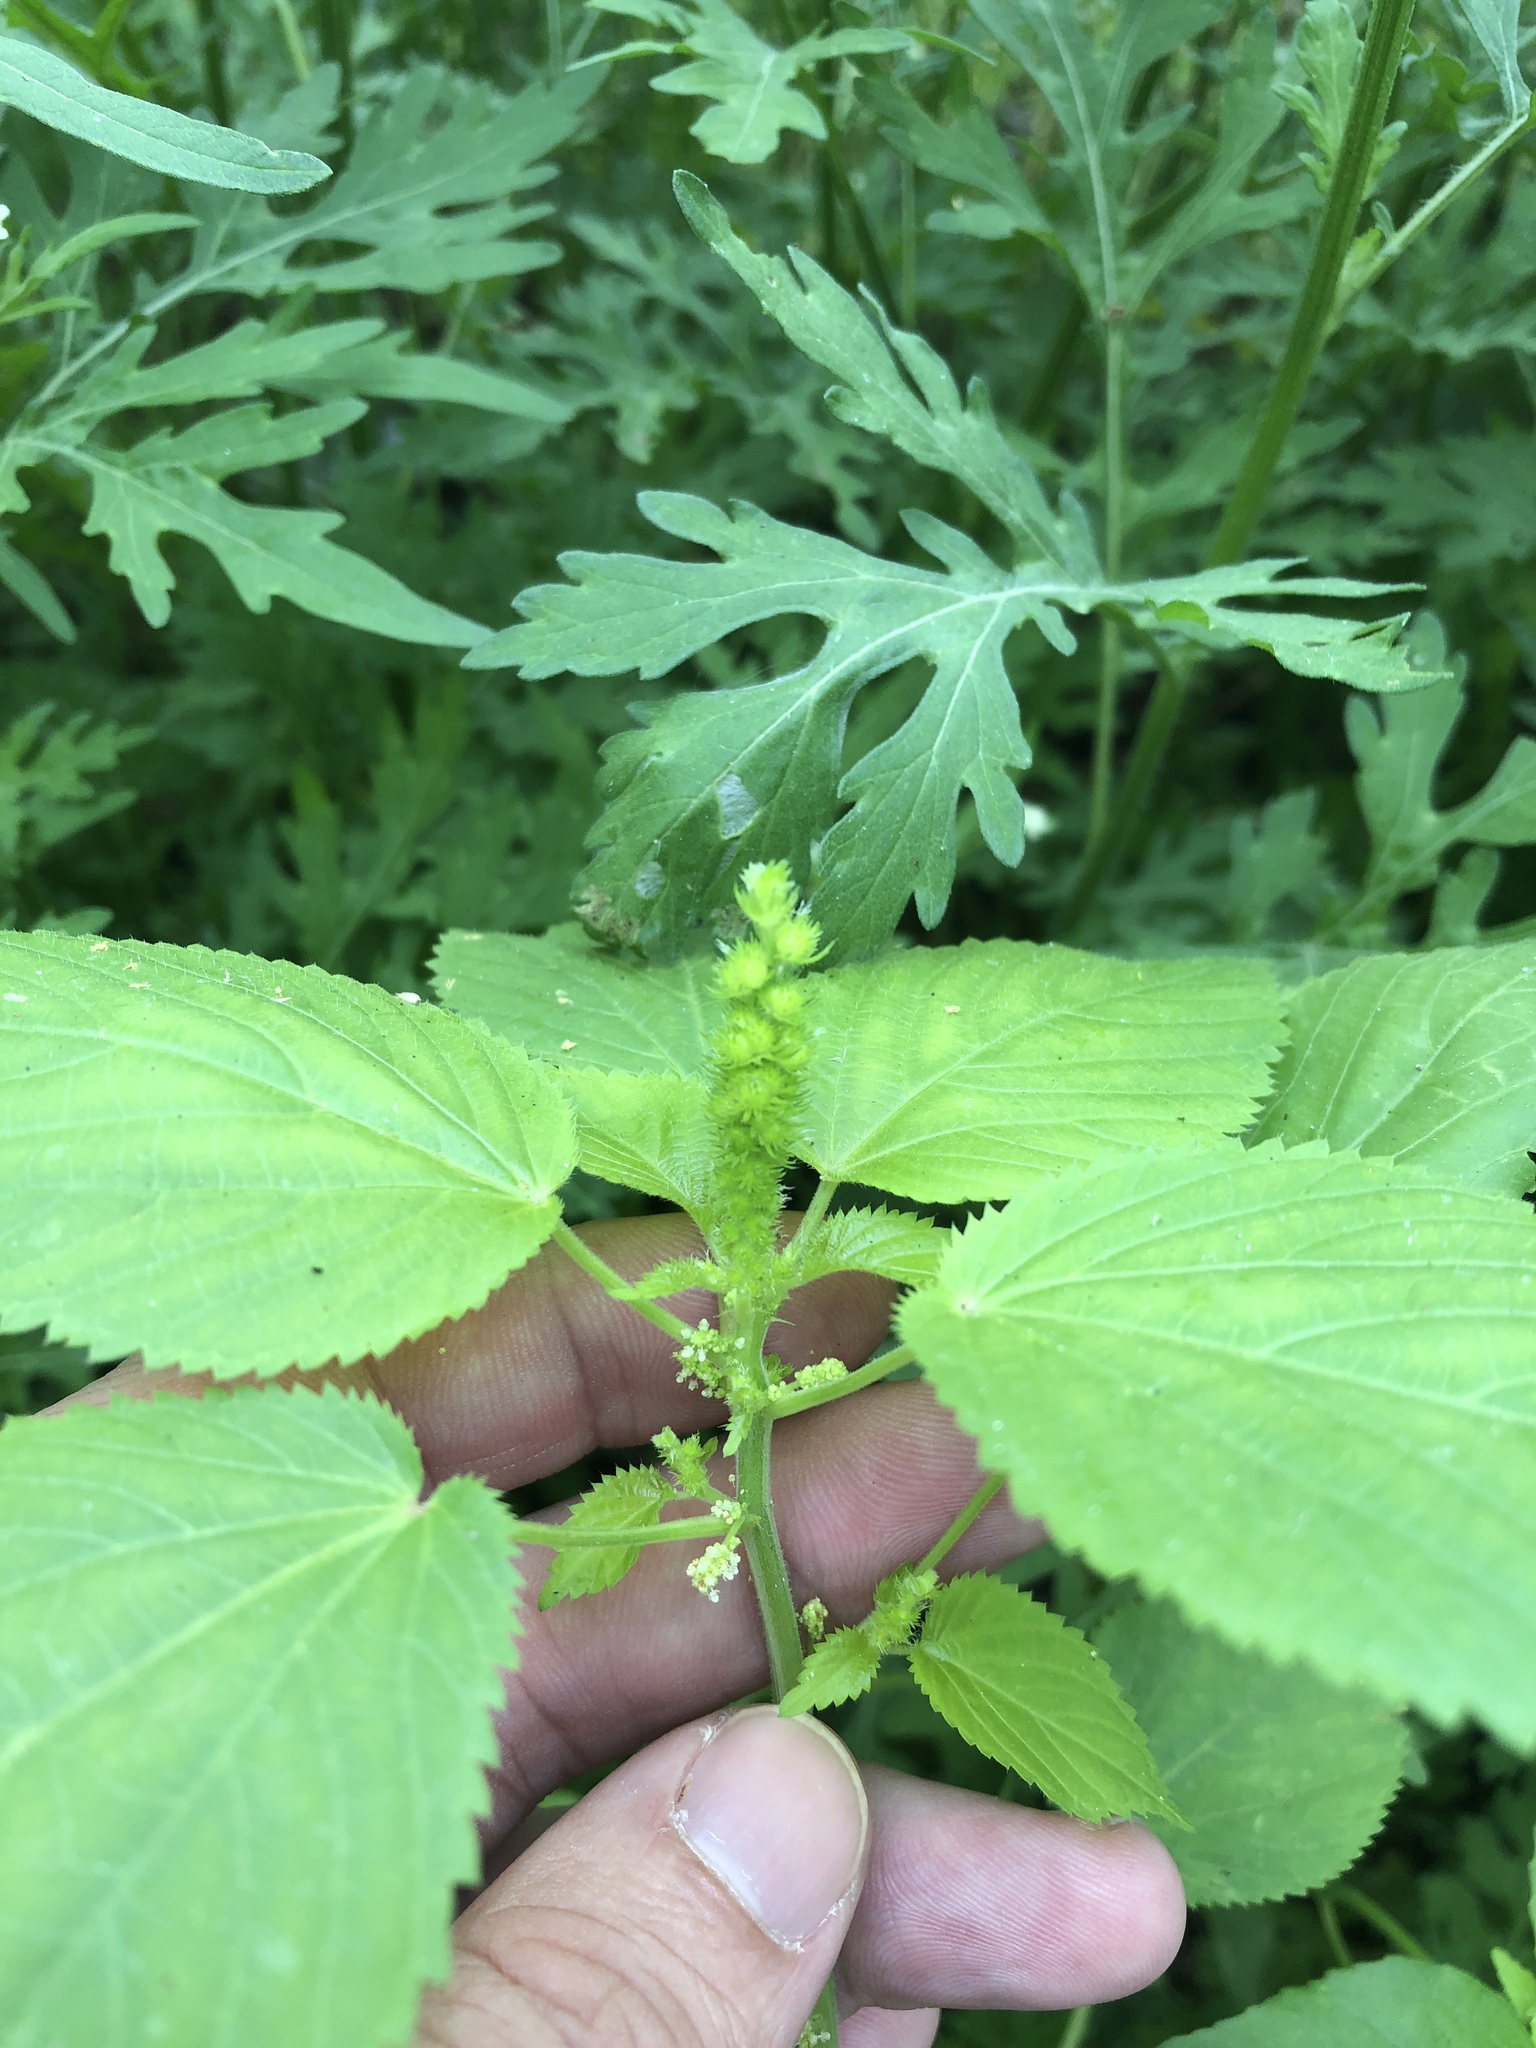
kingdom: Plantae
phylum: Tracheophyta
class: Magnoliopsida
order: Malpighiales
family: Euphorbiaceae
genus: Acalypha
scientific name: Acalypha ostryifolia
